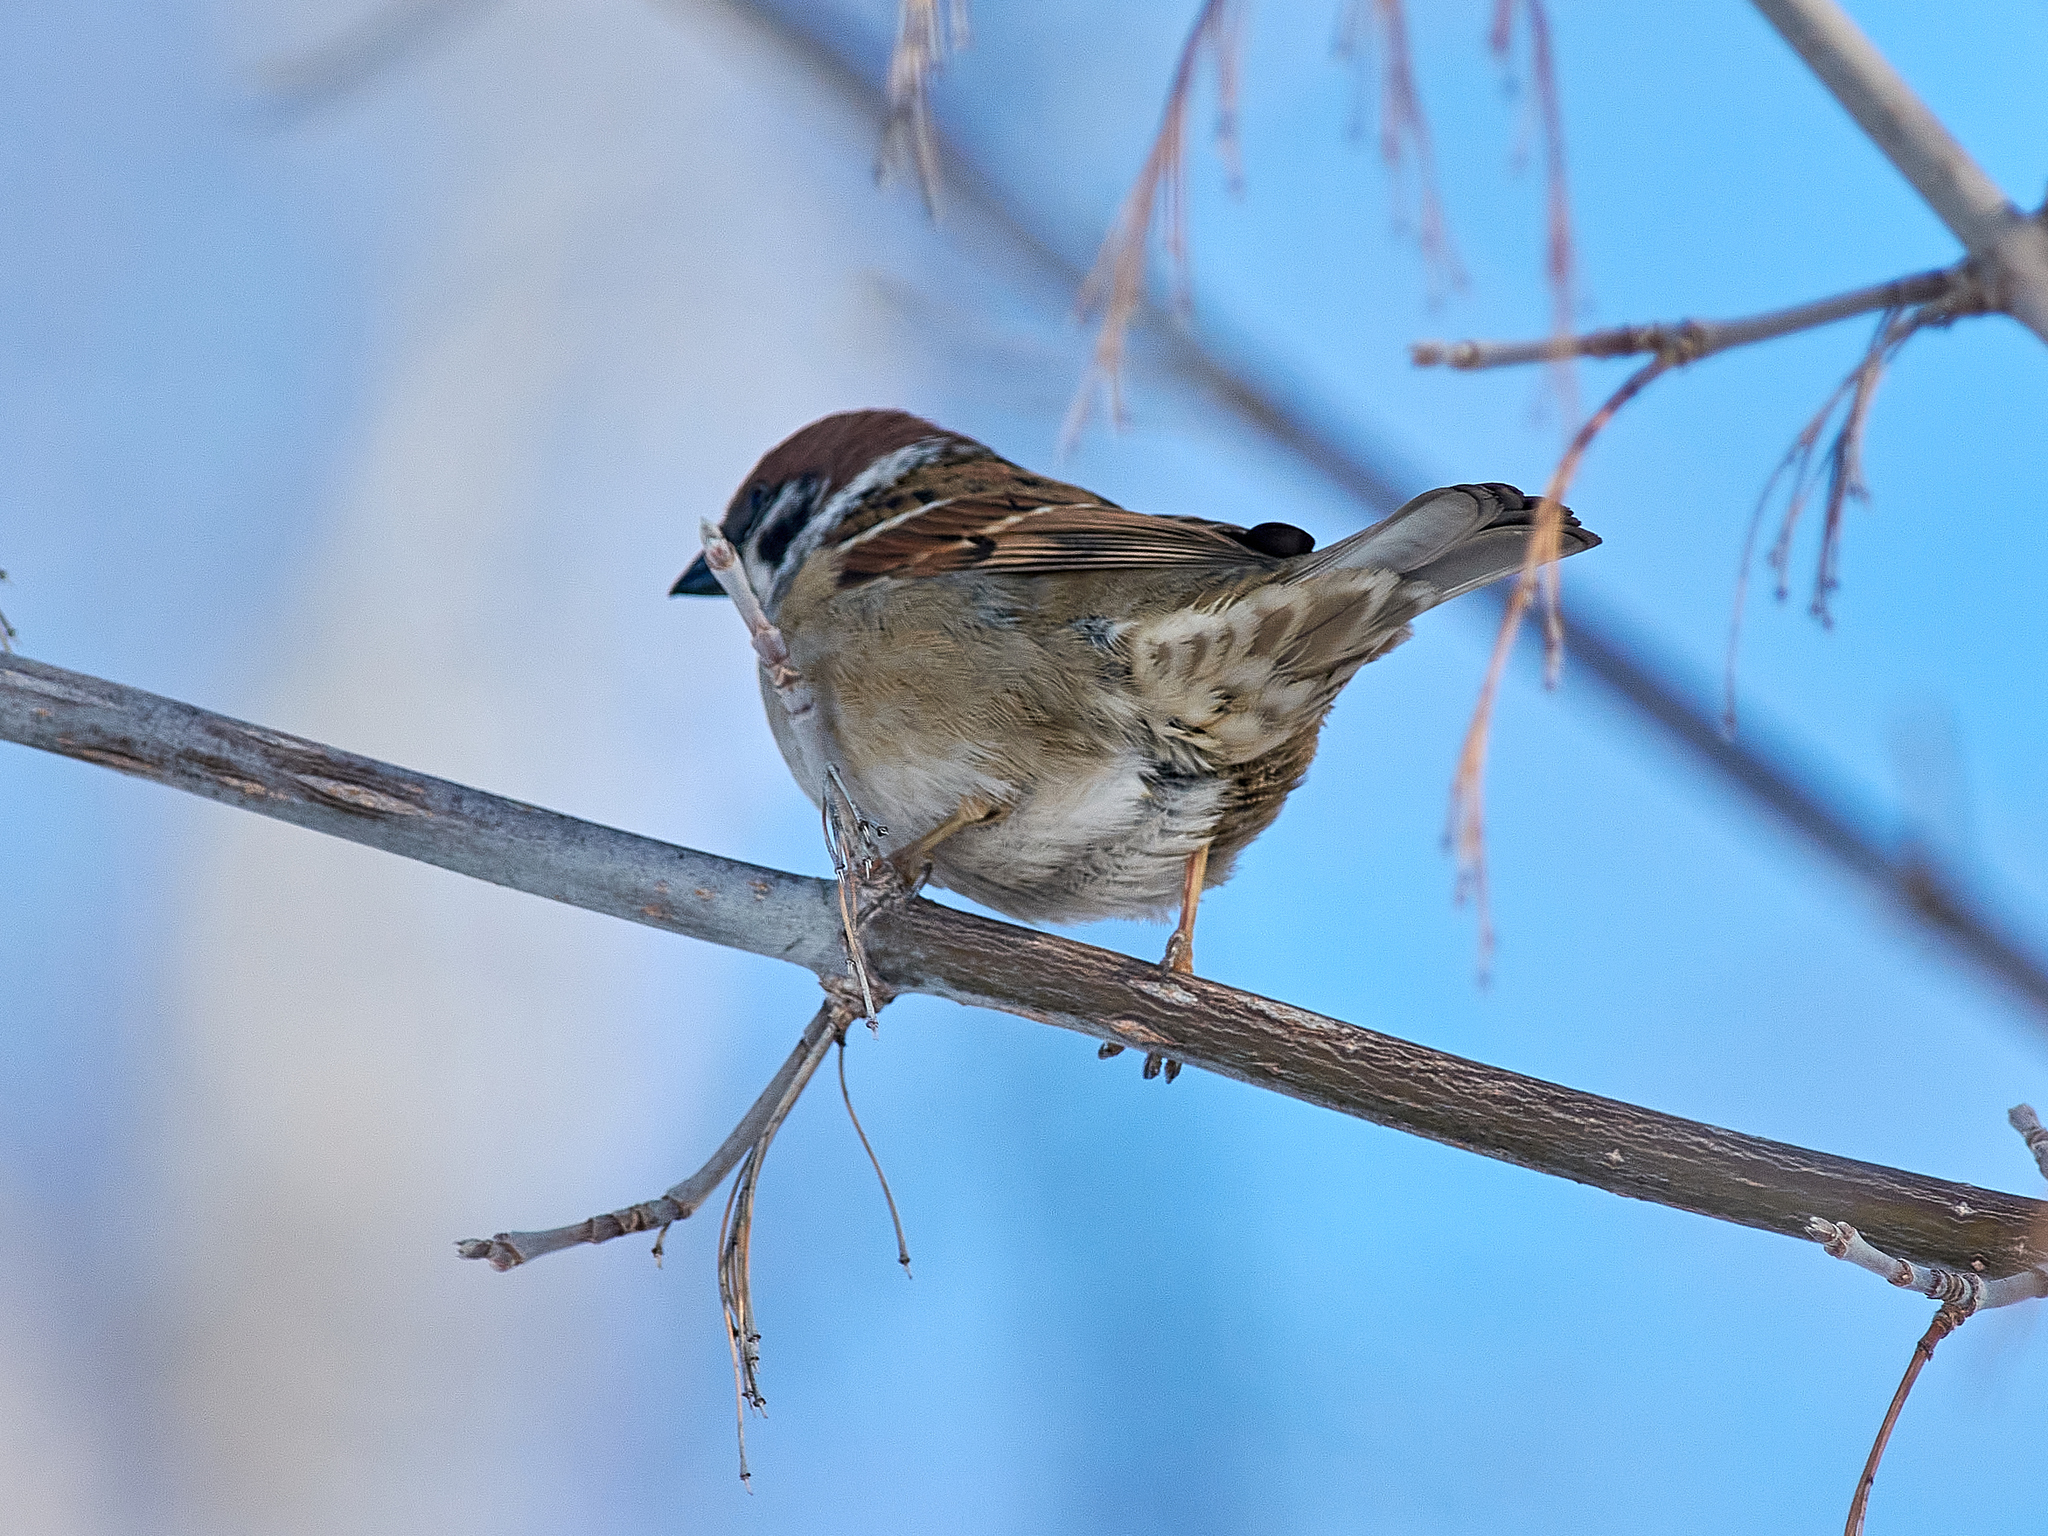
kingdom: Animalia
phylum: Chordata
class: Aves
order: Passeriformes
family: Passeridae
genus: Passer
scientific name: Passer montanus
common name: Eurasian tree sparrow
